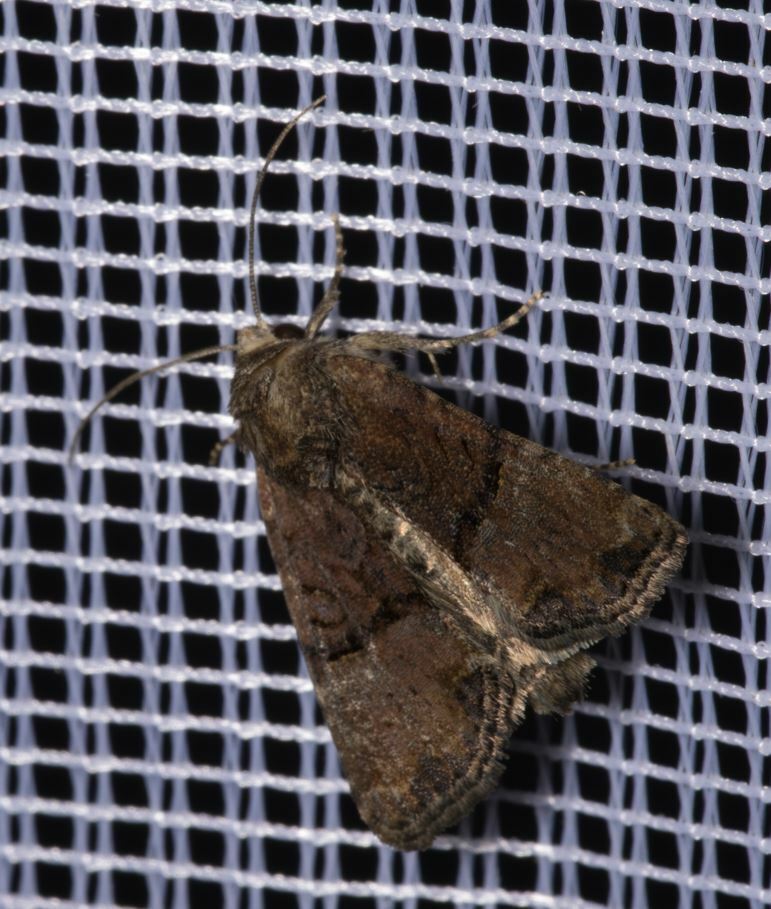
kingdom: Animalia
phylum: Arthropoda
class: Insecta
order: Lepidoptera
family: Noctuidae
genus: Mesoligia
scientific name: Mesoligia furuncula
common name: Cloaked minor
